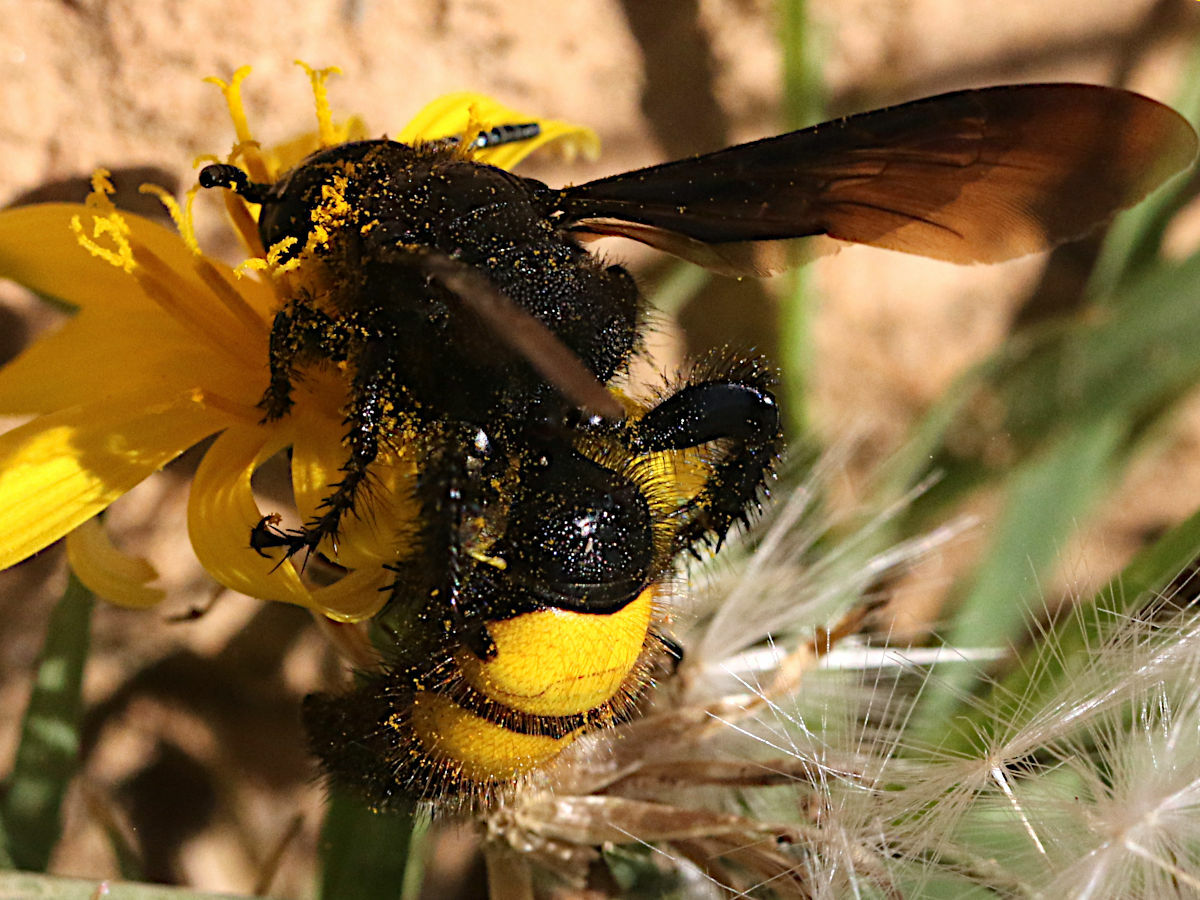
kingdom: Animalia
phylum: Arthropoda
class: Insecta
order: Hymenoptera
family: Scoliidae
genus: Scolia
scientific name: Scolia hirta
